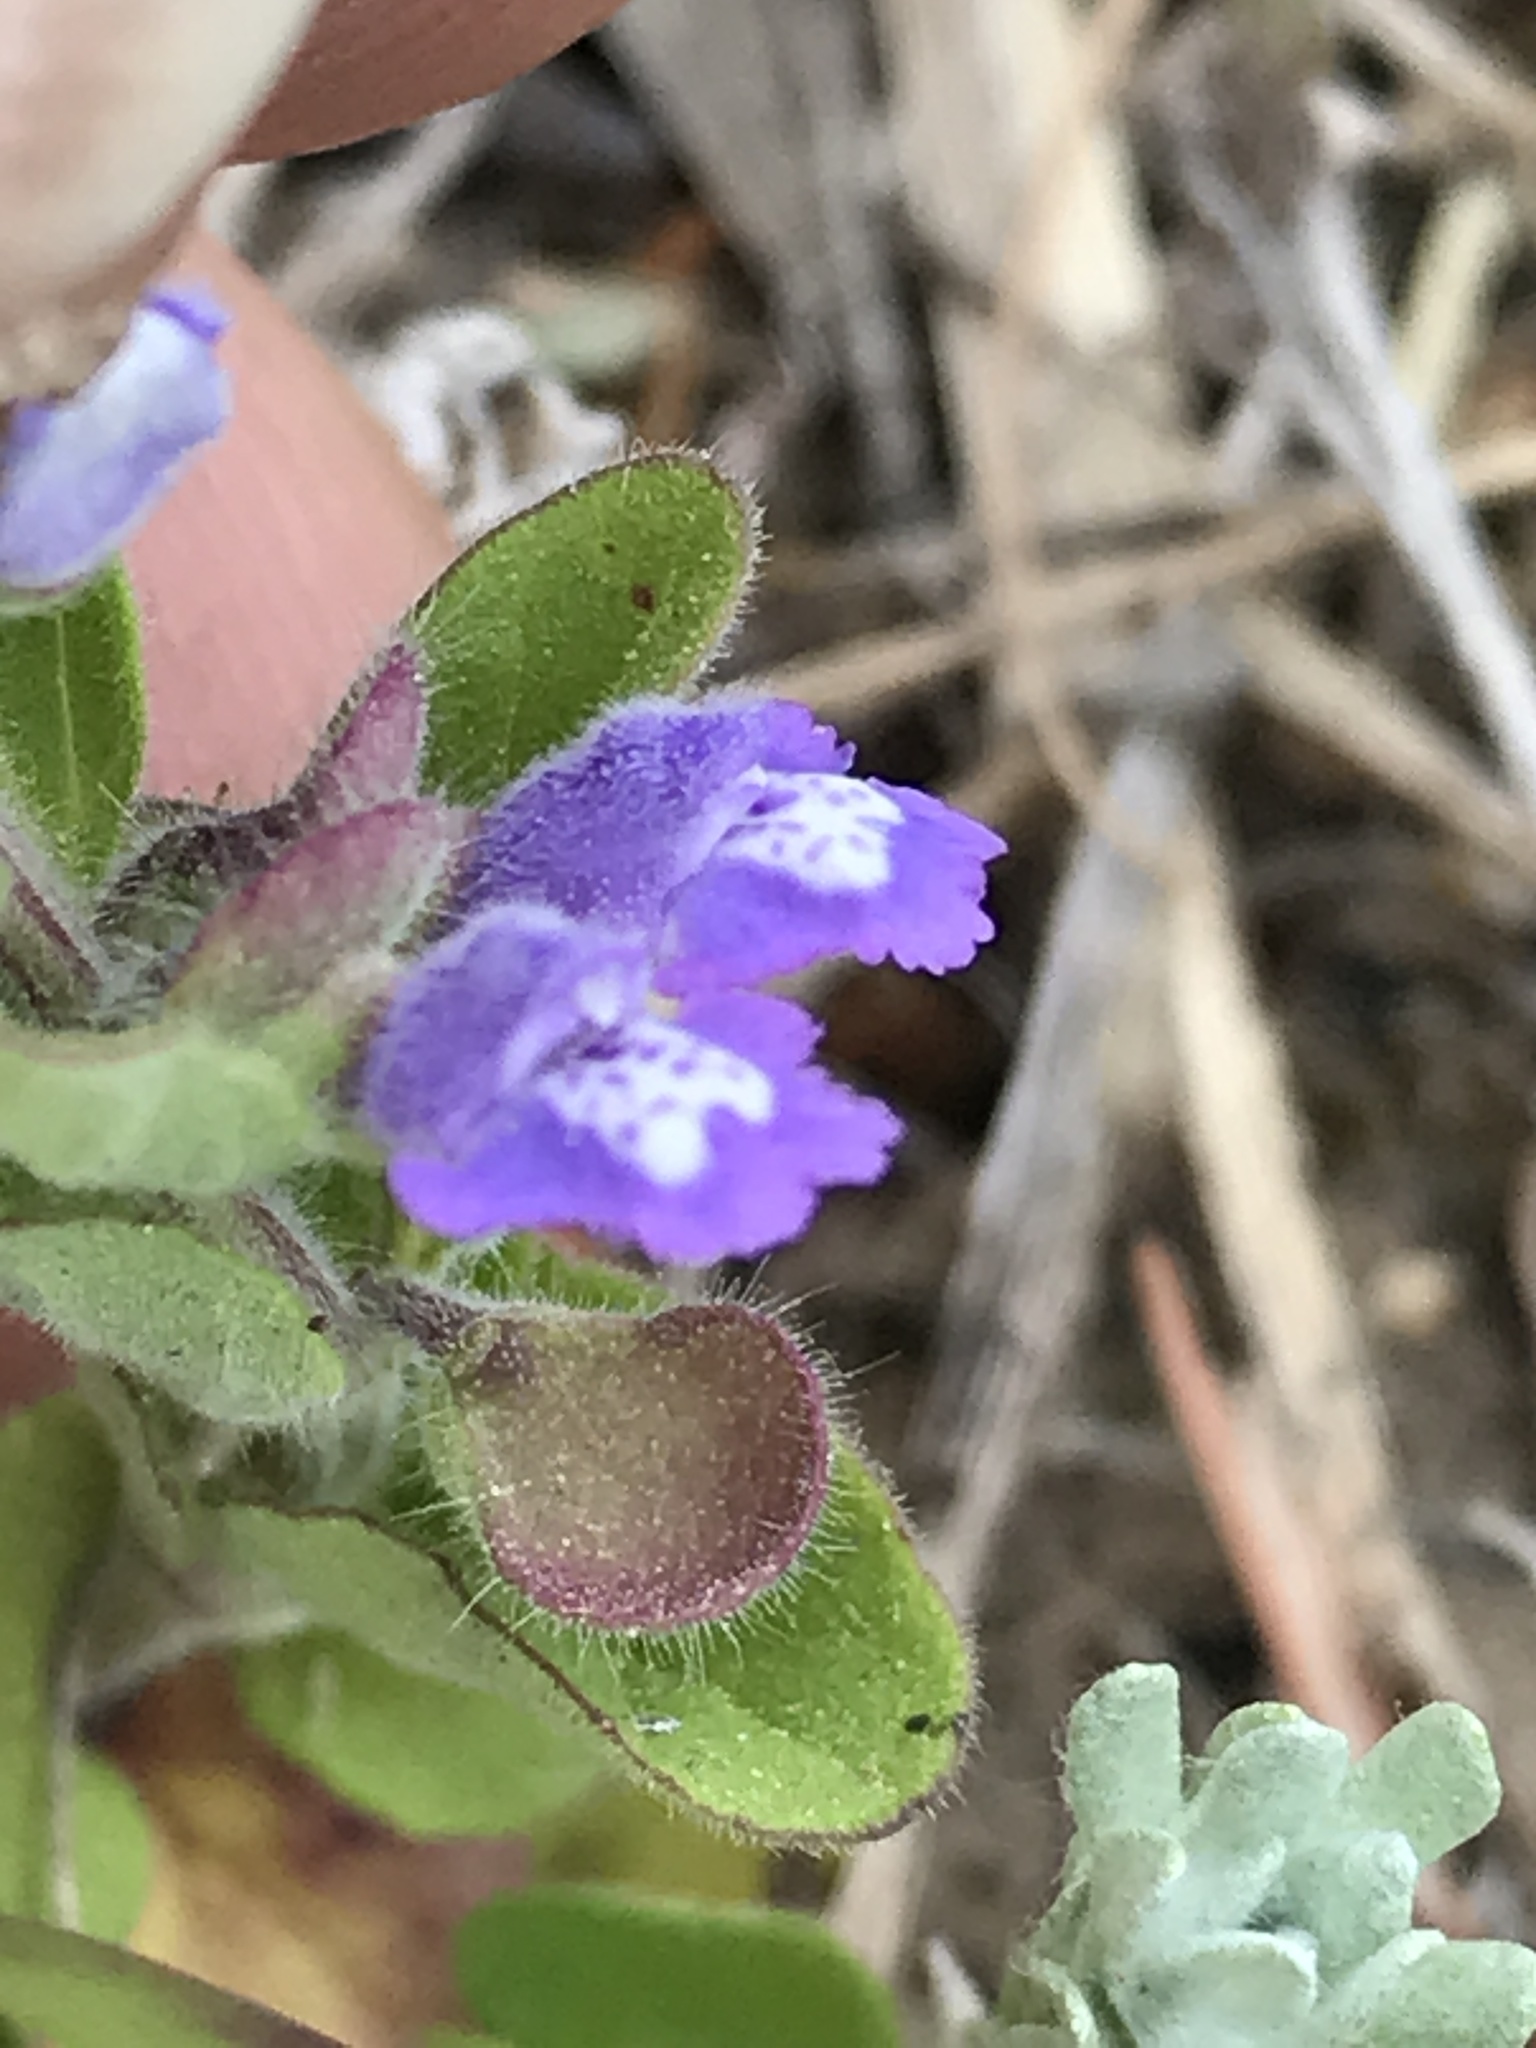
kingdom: Plantae
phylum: Tracheophyta
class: Magnoliopsida
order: Lamiales
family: Lamiaceae
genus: Scutellaria
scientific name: Scutellaria drummondii
